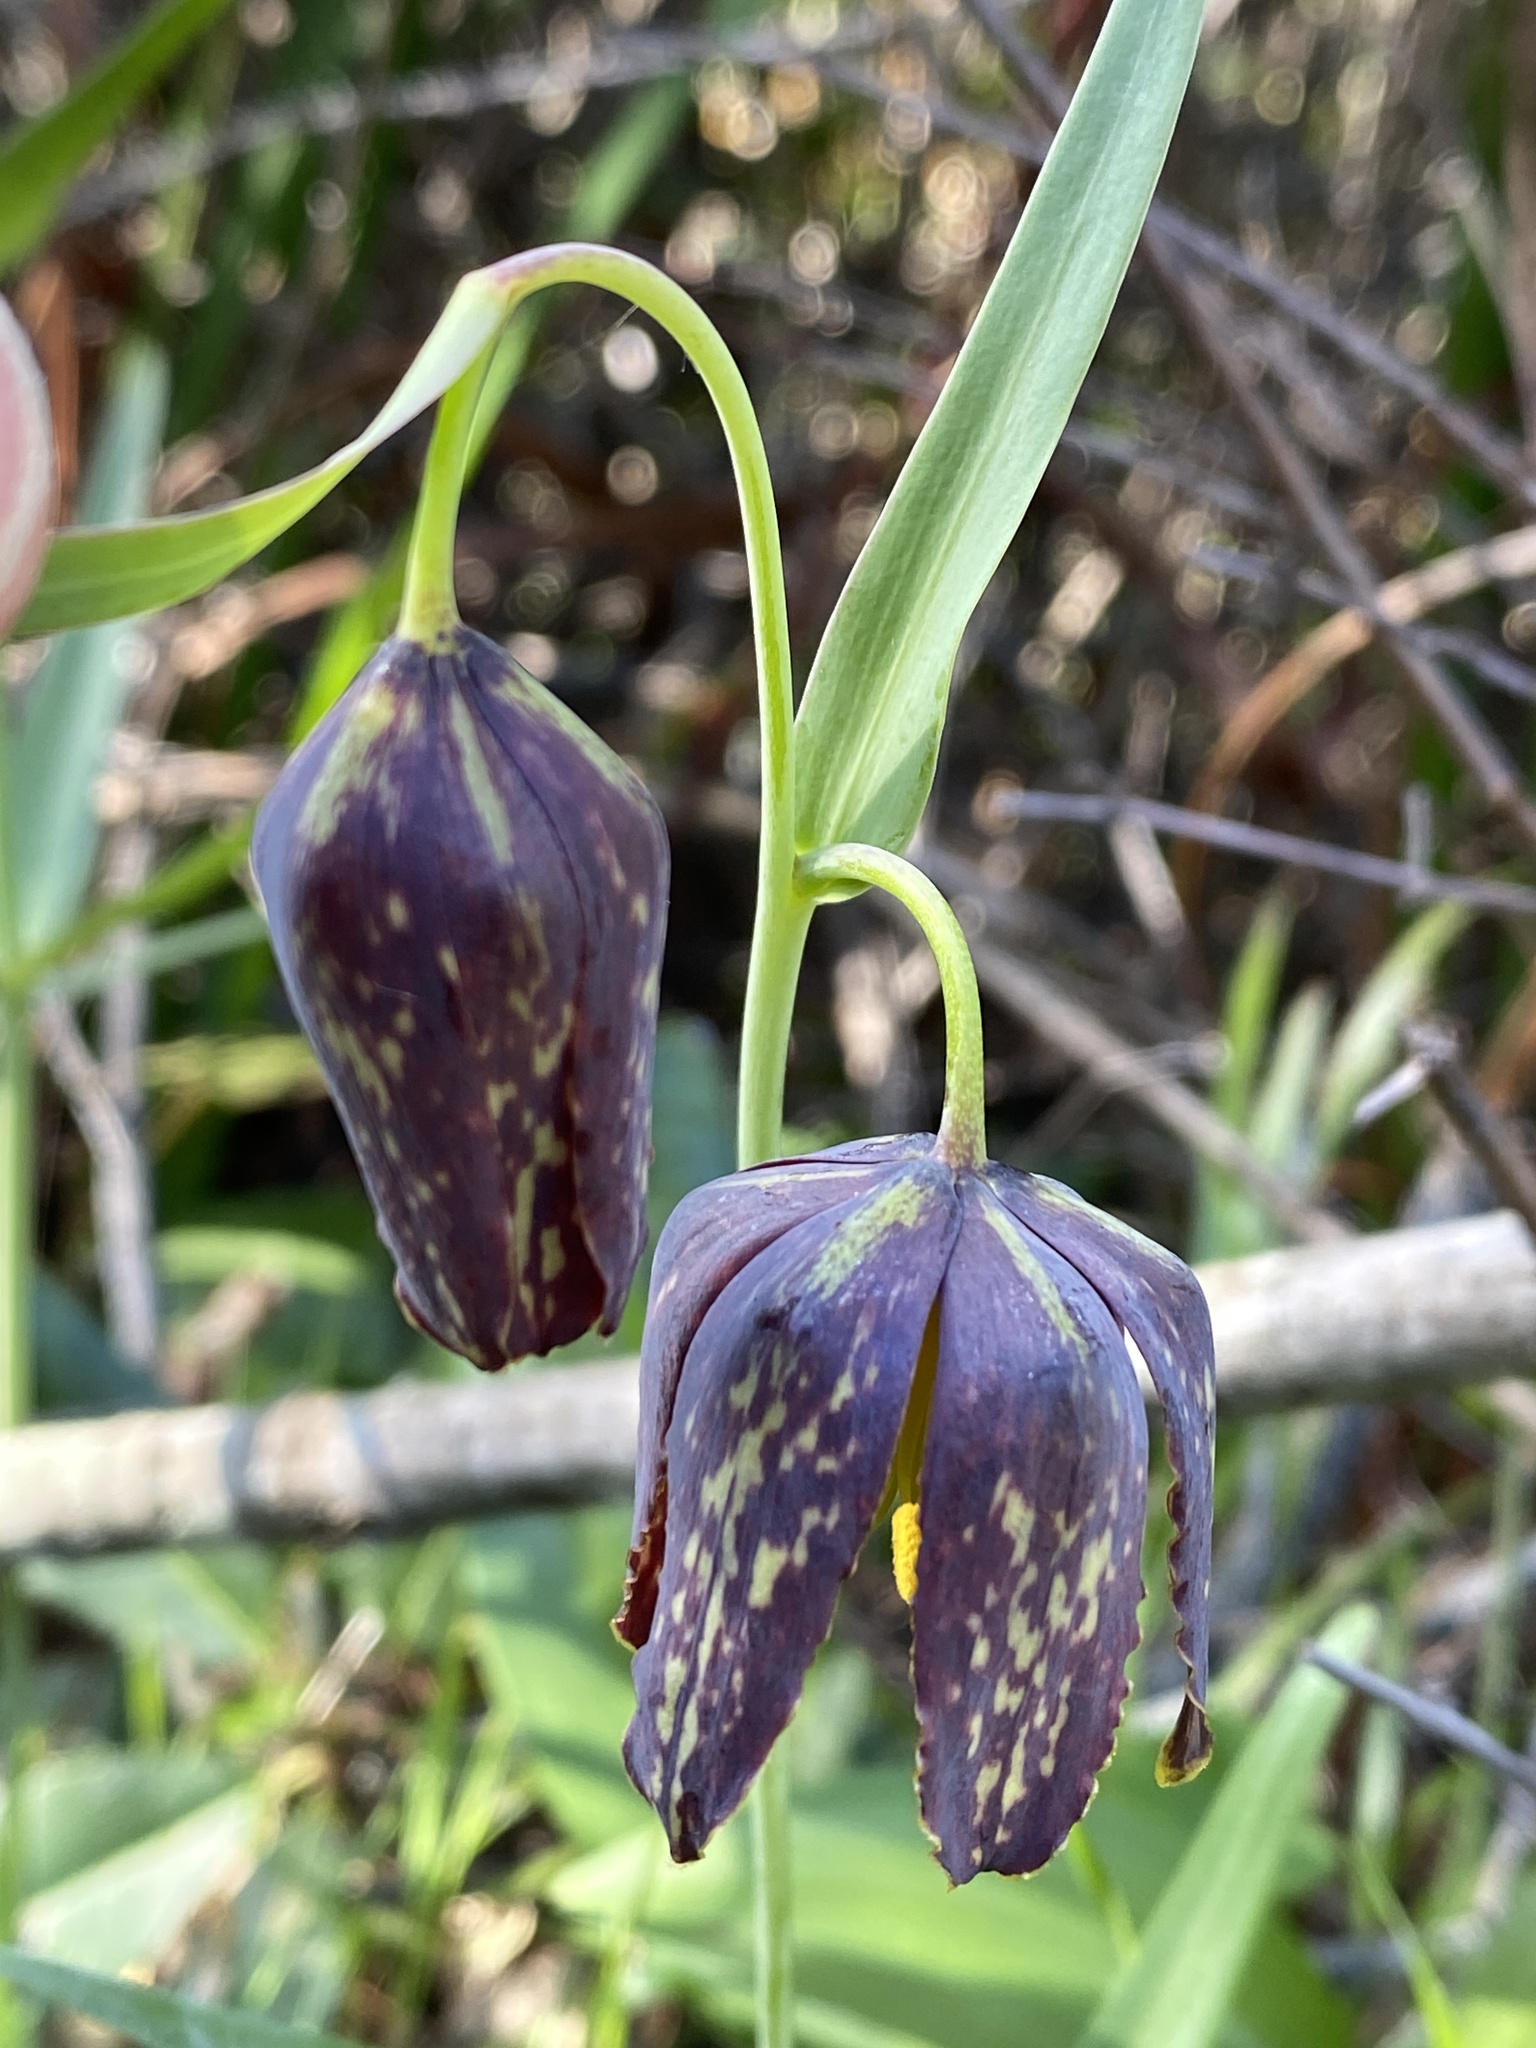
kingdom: Plantae
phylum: Tracheophyta
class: Liliopsida
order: Liliales
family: Liliaceae
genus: Fritillaria
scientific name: Fritillaria affinis
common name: Ojai fritillary
